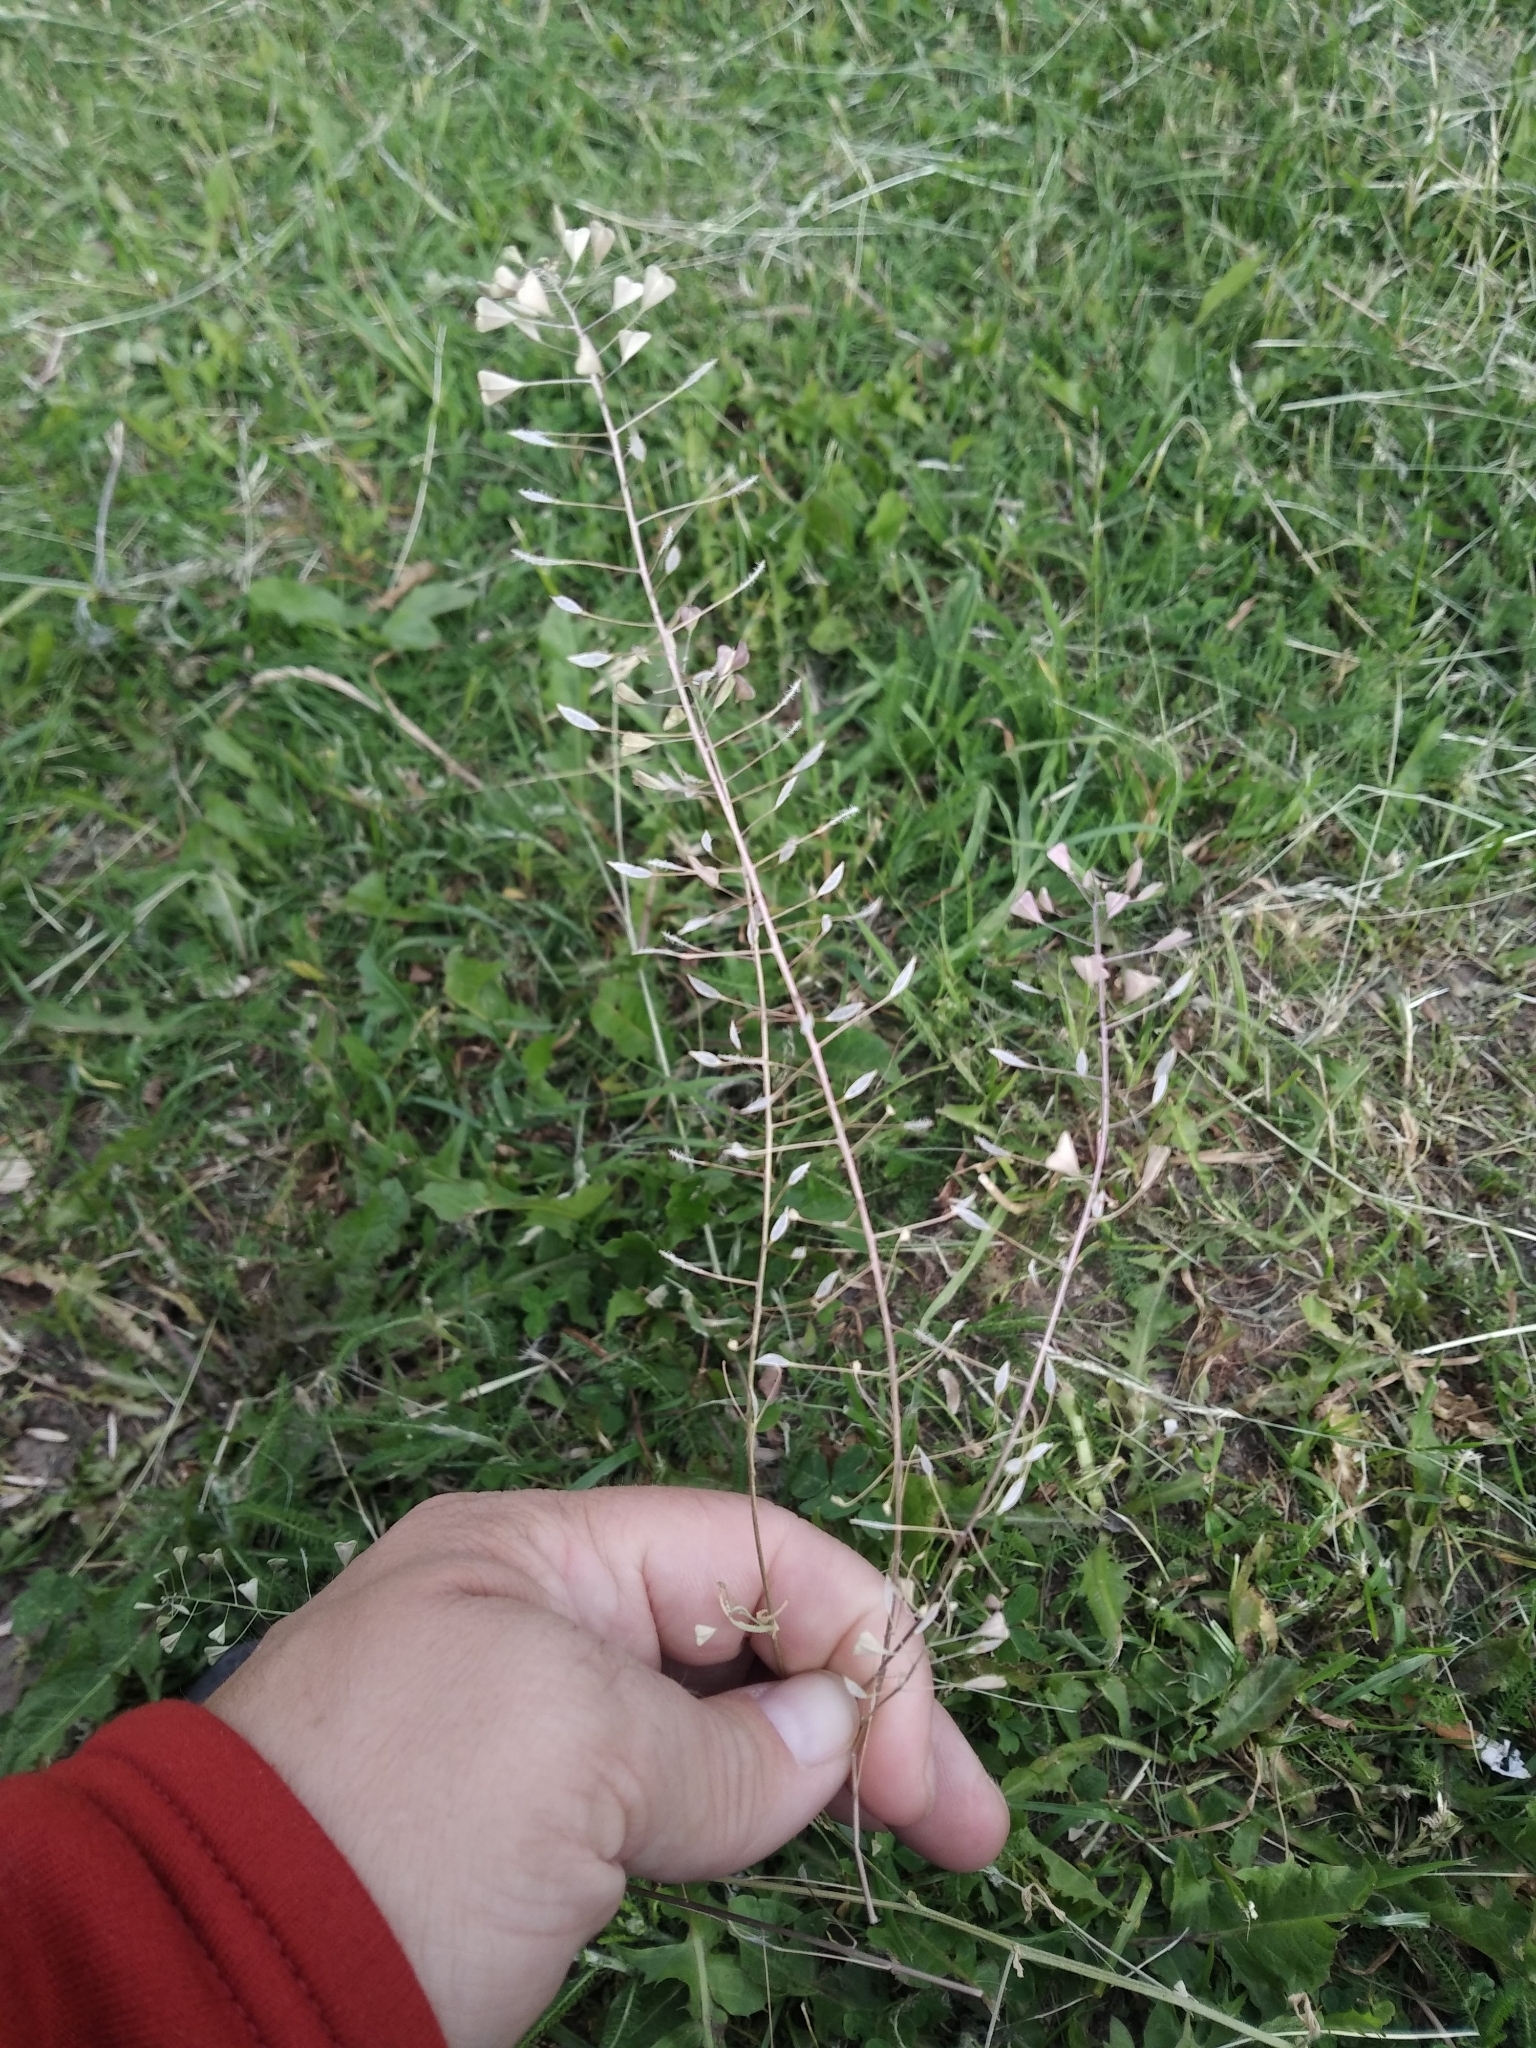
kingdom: Plantae
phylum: Tracheophyta
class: Magnoliopsida
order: Brassicales
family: Brassicaceae
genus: Capsella
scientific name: Capsella bursa-pastoris
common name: Shepherd's purse
